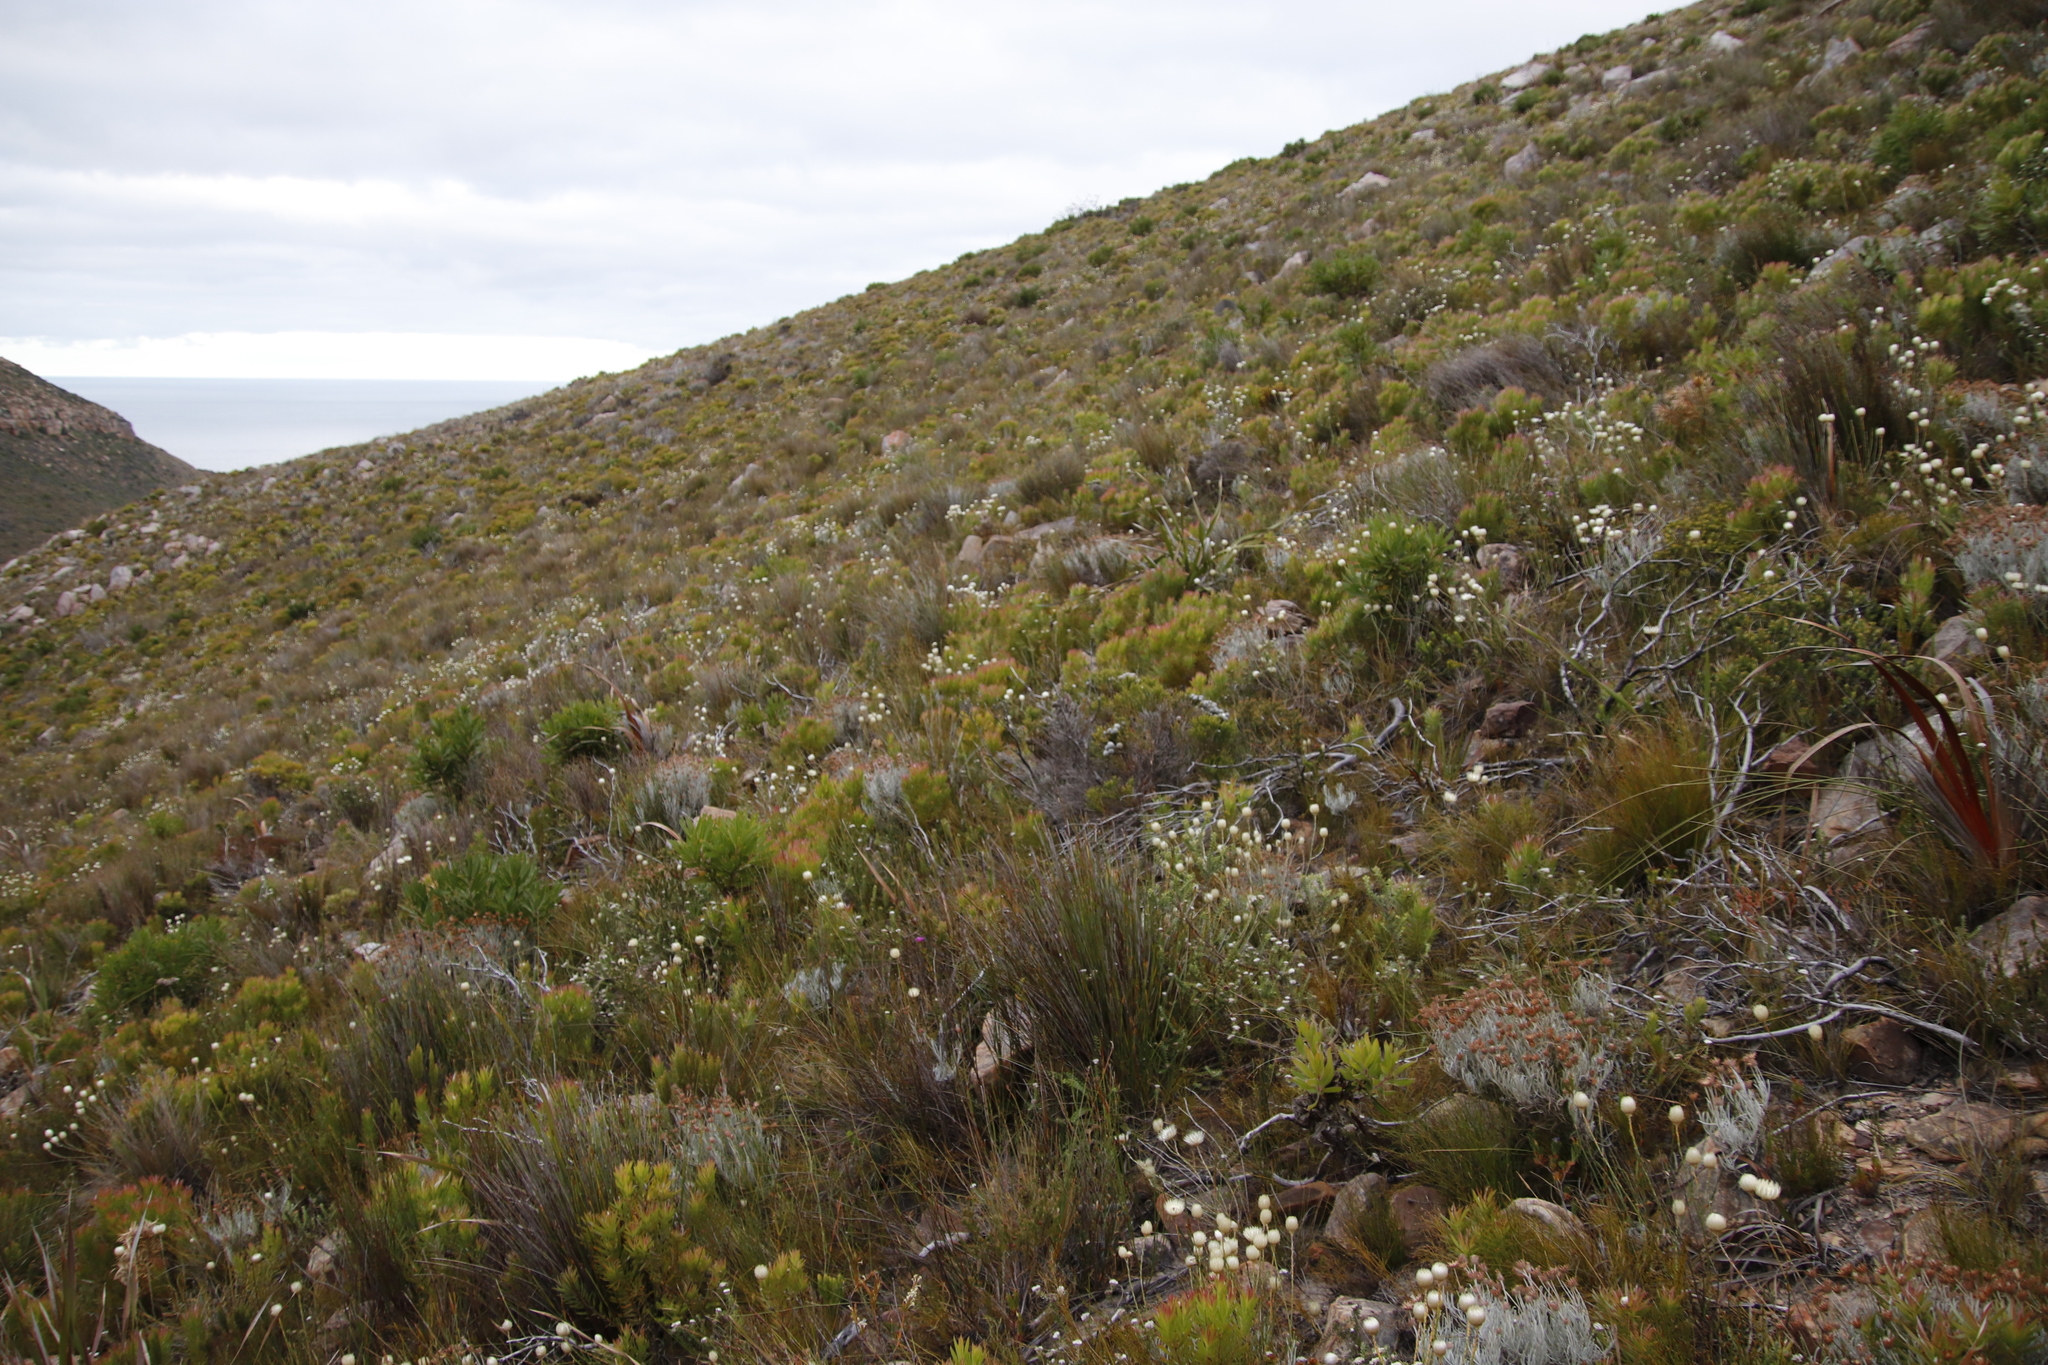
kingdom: Plantae
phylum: Tracheophyta
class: Magnoliopsida
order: Asterales
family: Asteraceae
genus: Edmondia
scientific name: Edmondia sesamoides
